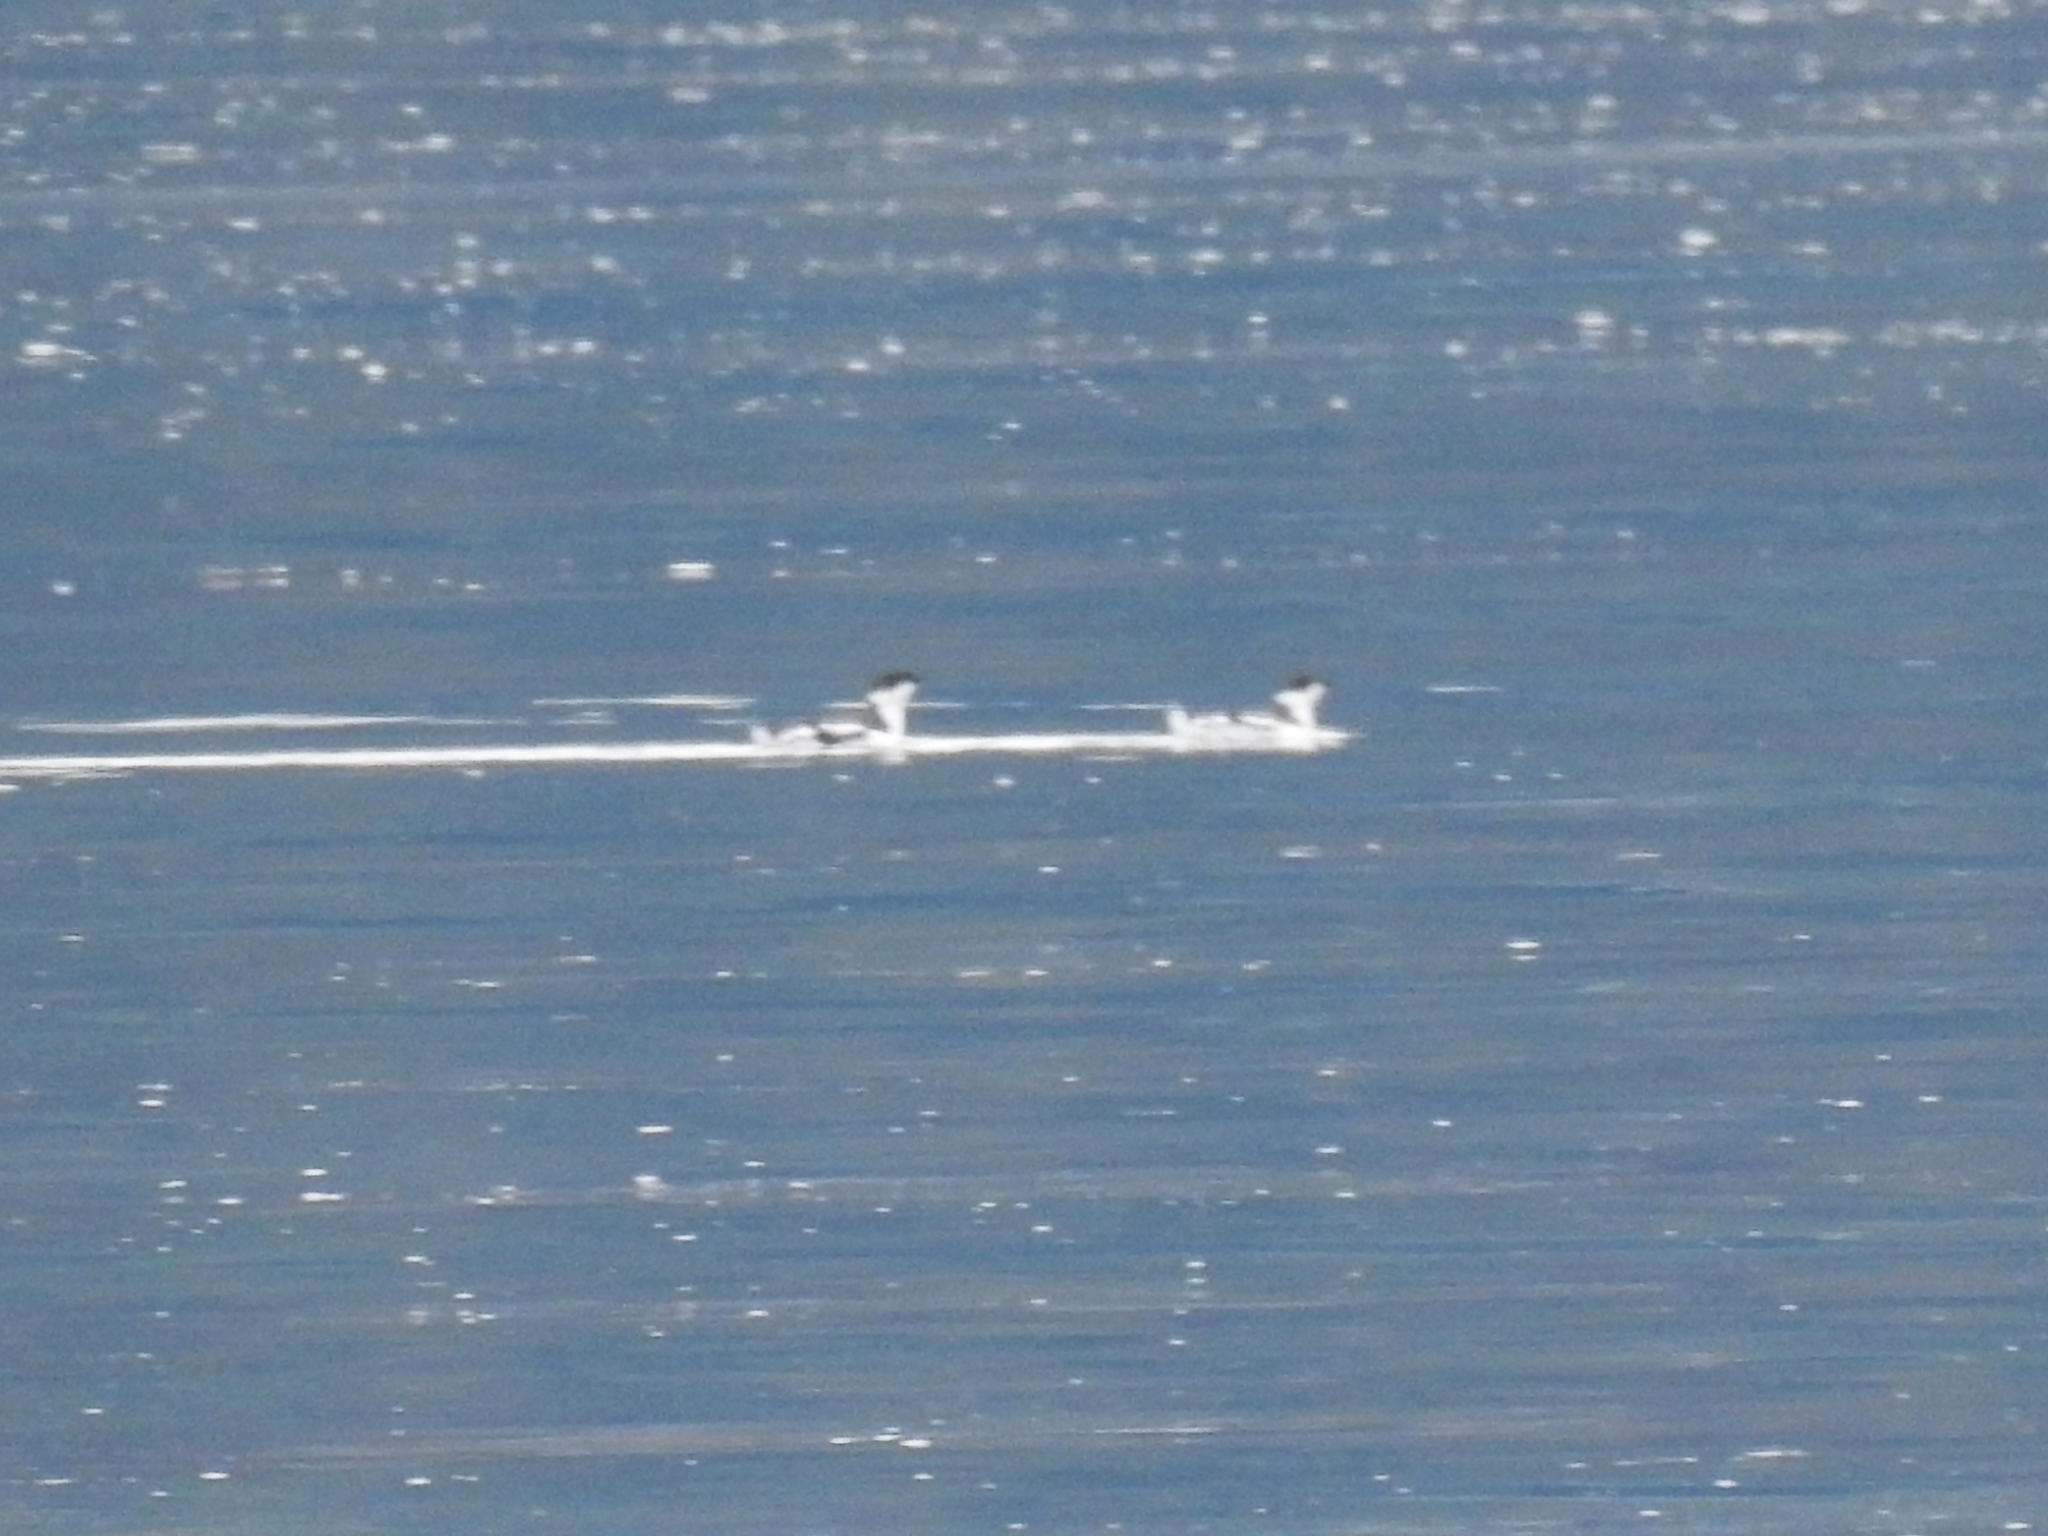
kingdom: Animalia
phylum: Chordata
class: Aves
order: Charadriiformes
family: Alcidae
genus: Brachyramphus
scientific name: Brachyramphus marmoratus
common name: Marbled murrelet
